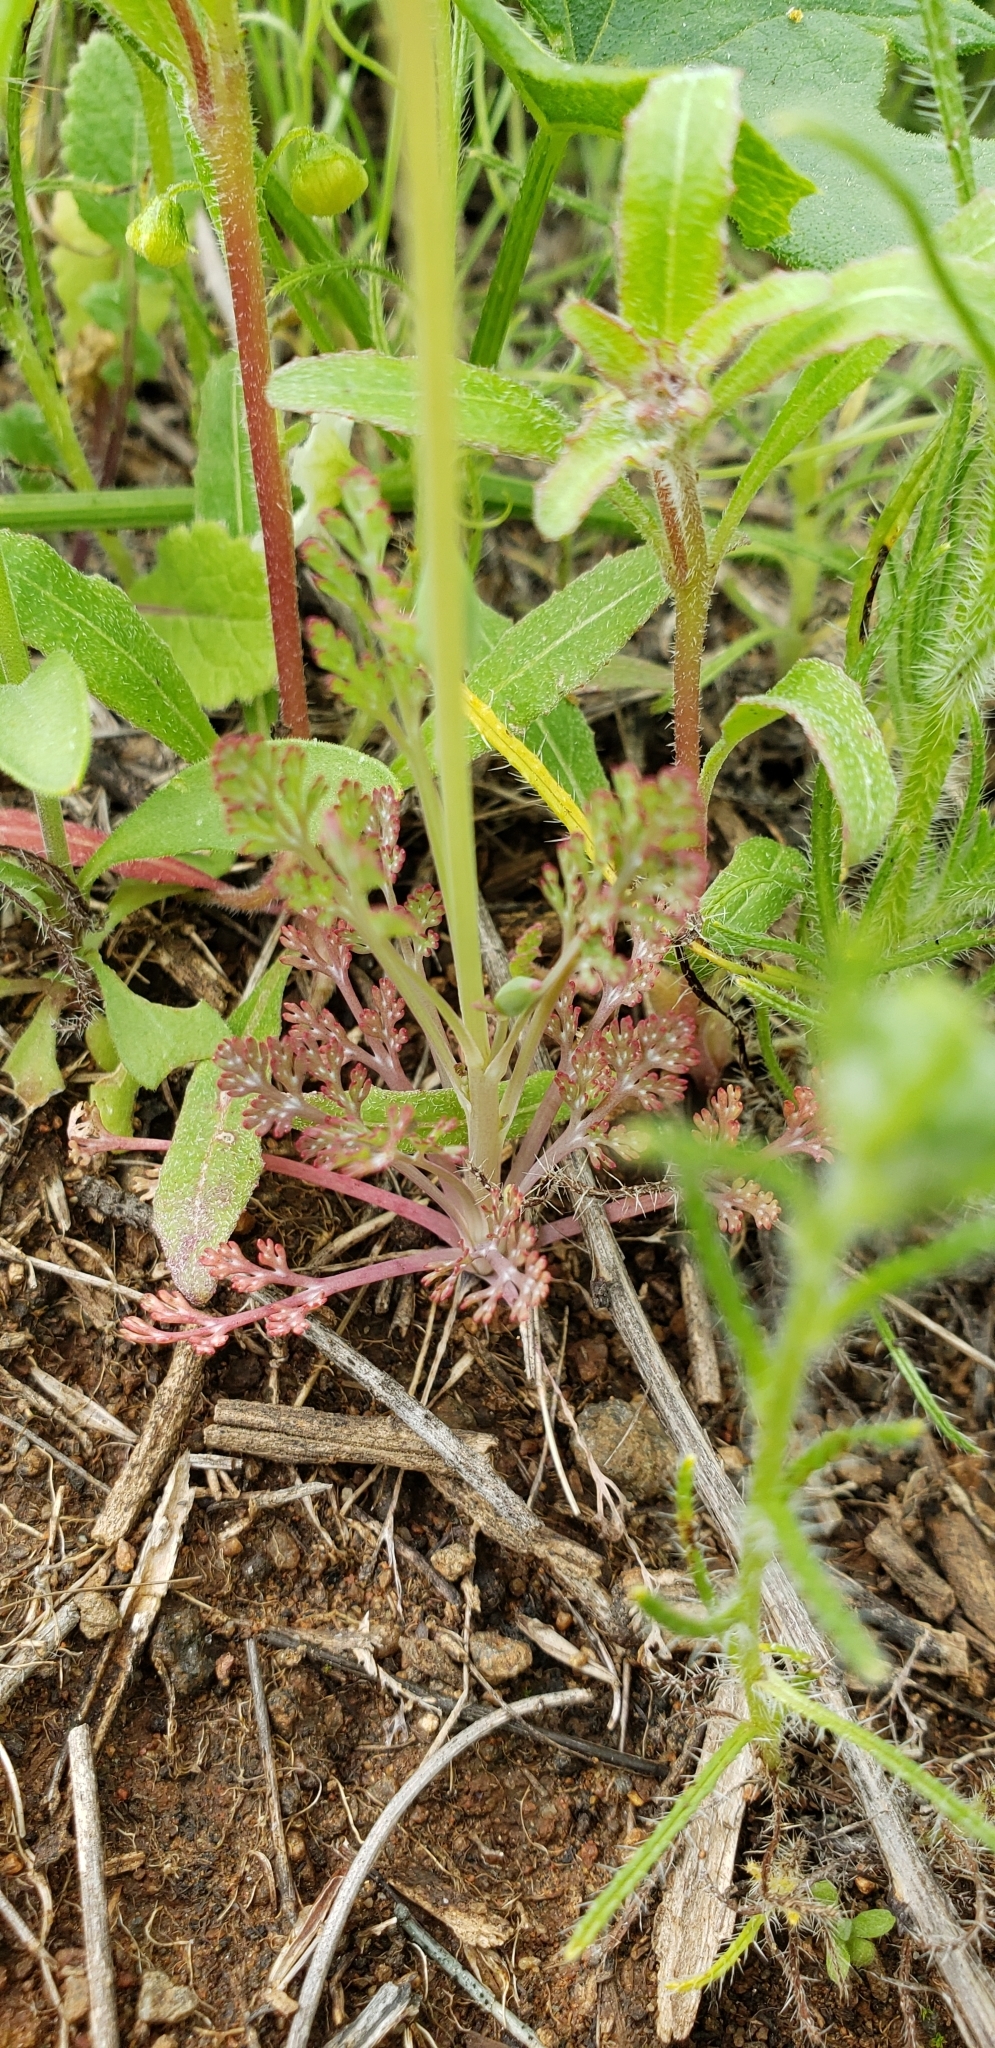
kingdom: Plantae
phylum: Tracheophyta
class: Magnoliopsida
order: Ranunculales
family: Papaveraceae
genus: Eschscholzia
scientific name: Eschscholzia californica
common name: California poppy
